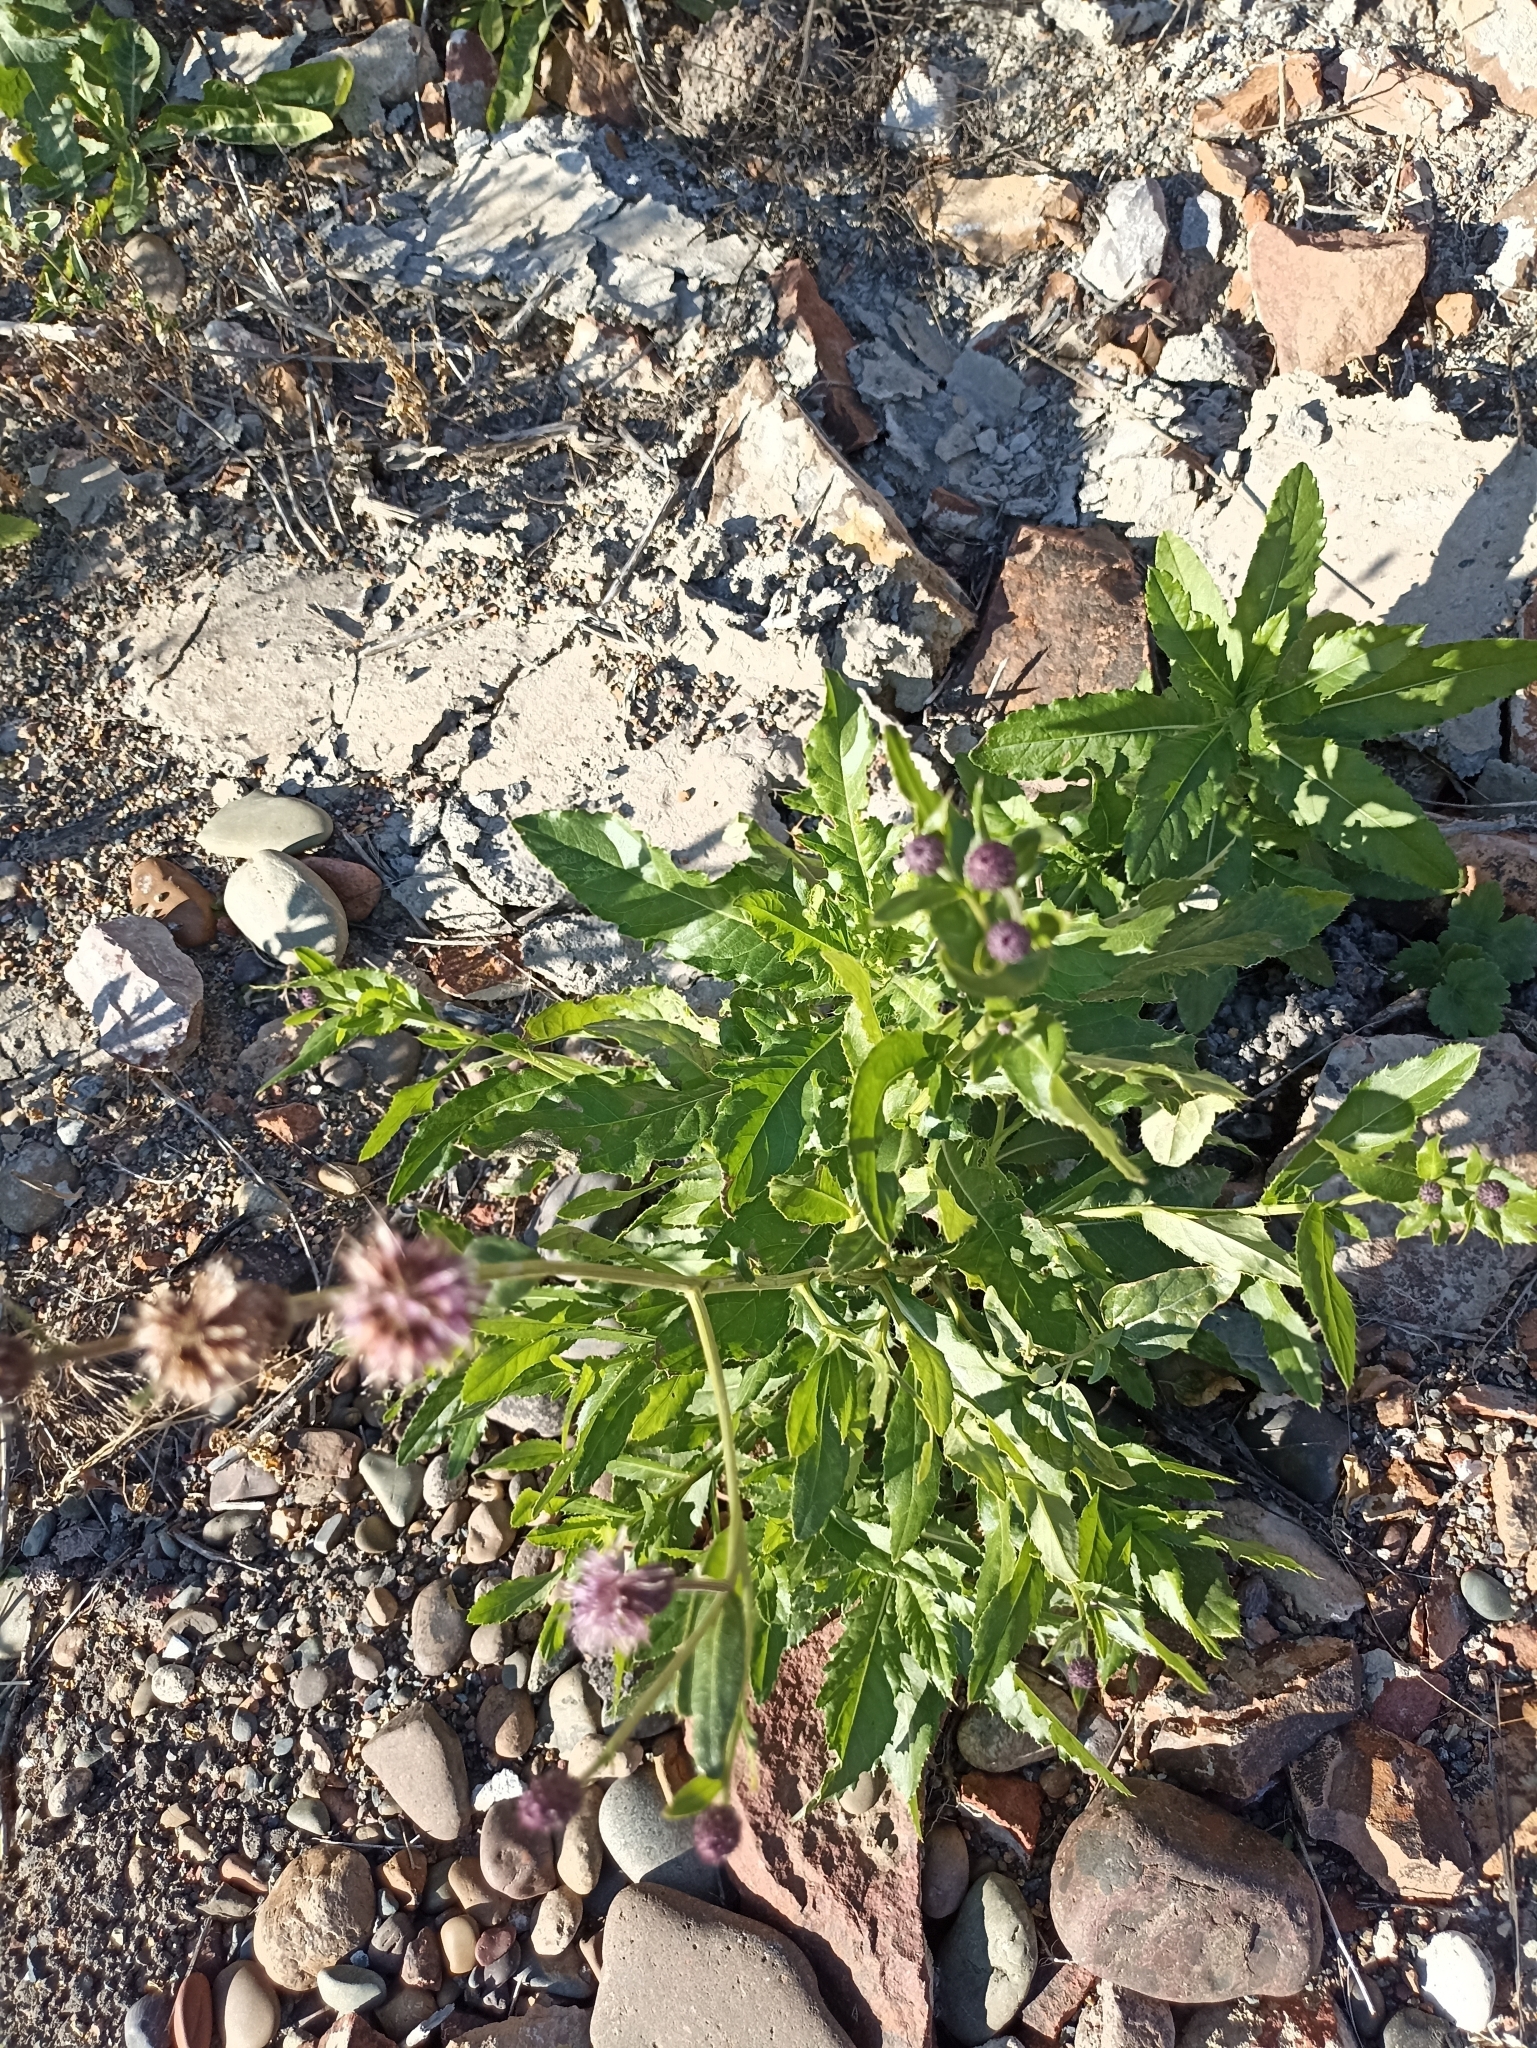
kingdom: Plantae
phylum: Tracheophyta
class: Magnoliopsida
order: Asterales
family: Asteraceae
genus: Cirsium
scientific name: Cirsium arvense
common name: Creeping thistle
